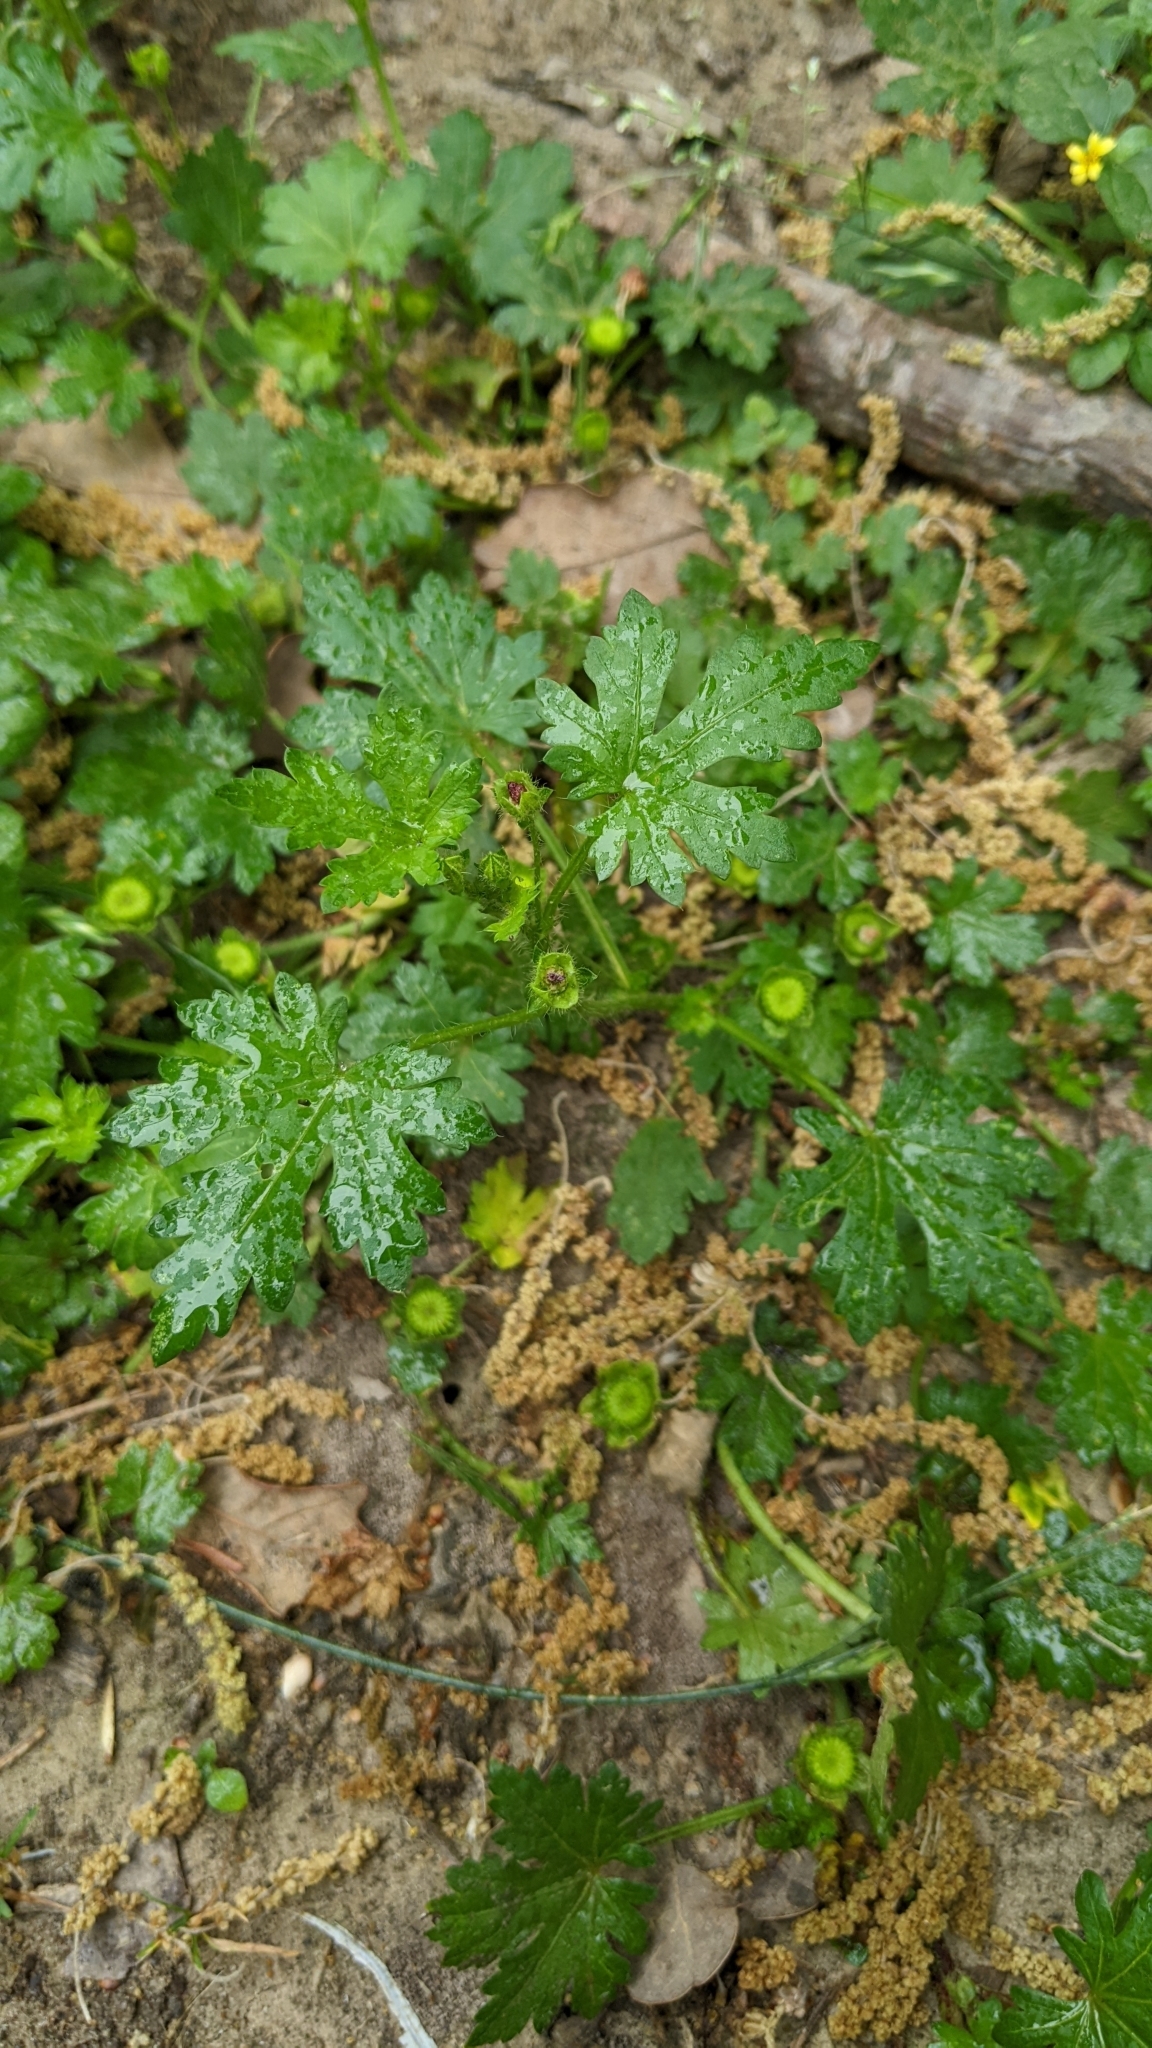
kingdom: Plantae
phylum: Tracheophyta
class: Magnoliopsida
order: Malvales
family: Malvaceae
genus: Modiola
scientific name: Modiola caroliniana
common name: Carolina bristlemallow
